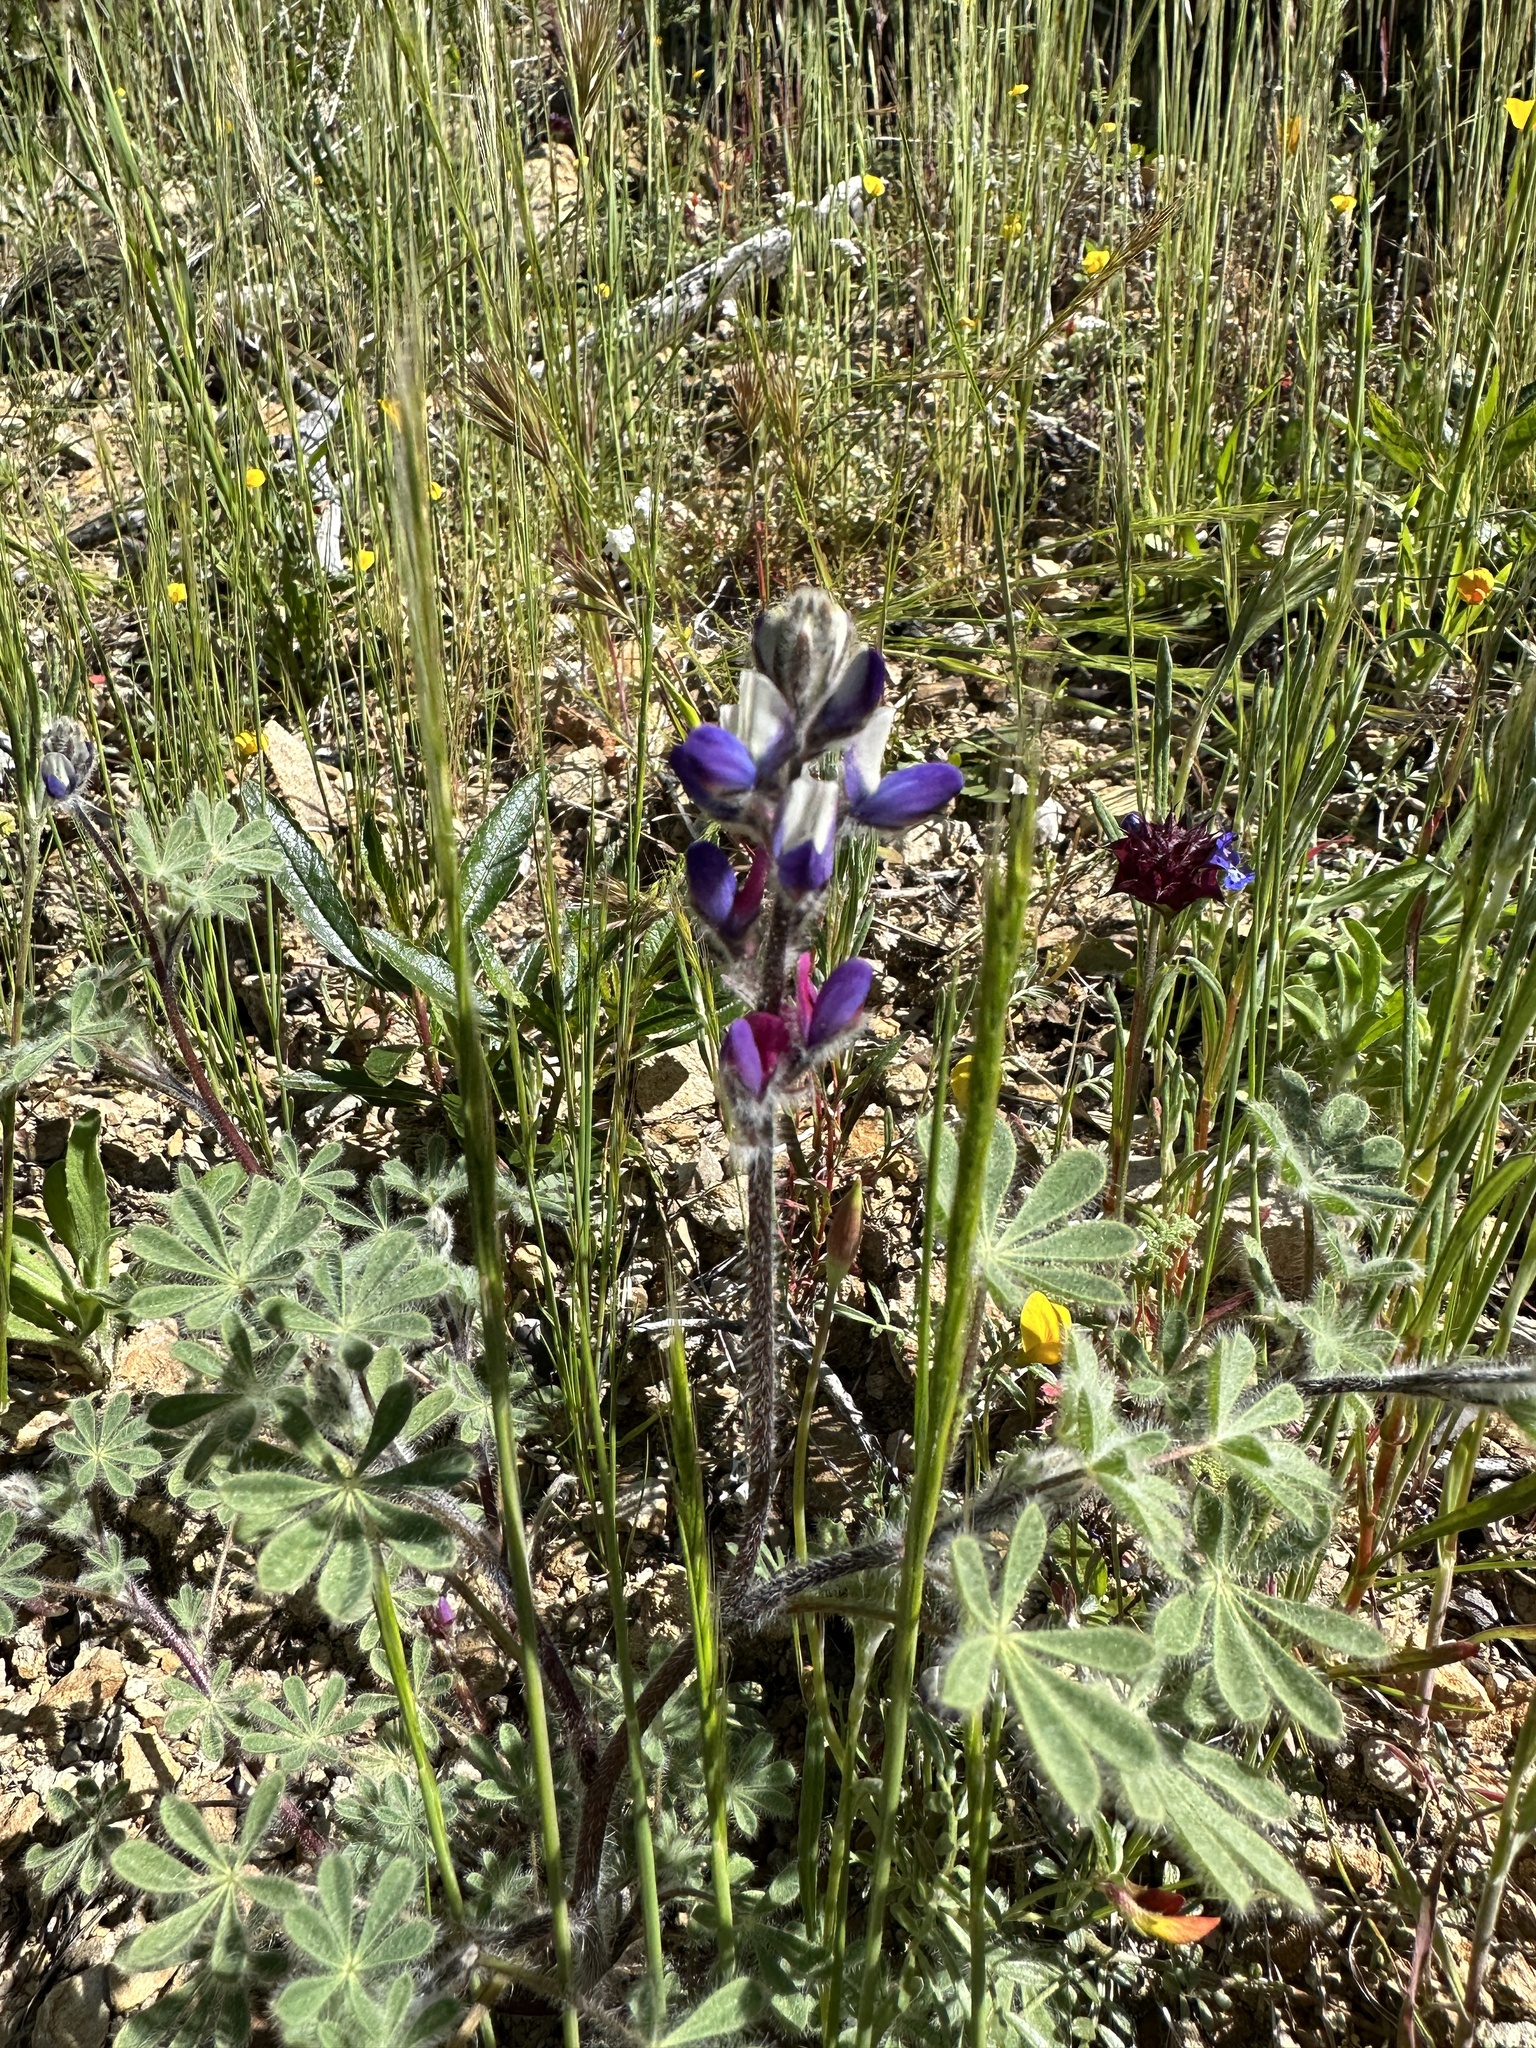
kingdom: Plantae
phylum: Tracheophyta
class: Magnoliopsida
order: Fabales
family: Fabaceae
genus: Lupinus
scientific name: Lupinus concinnus
